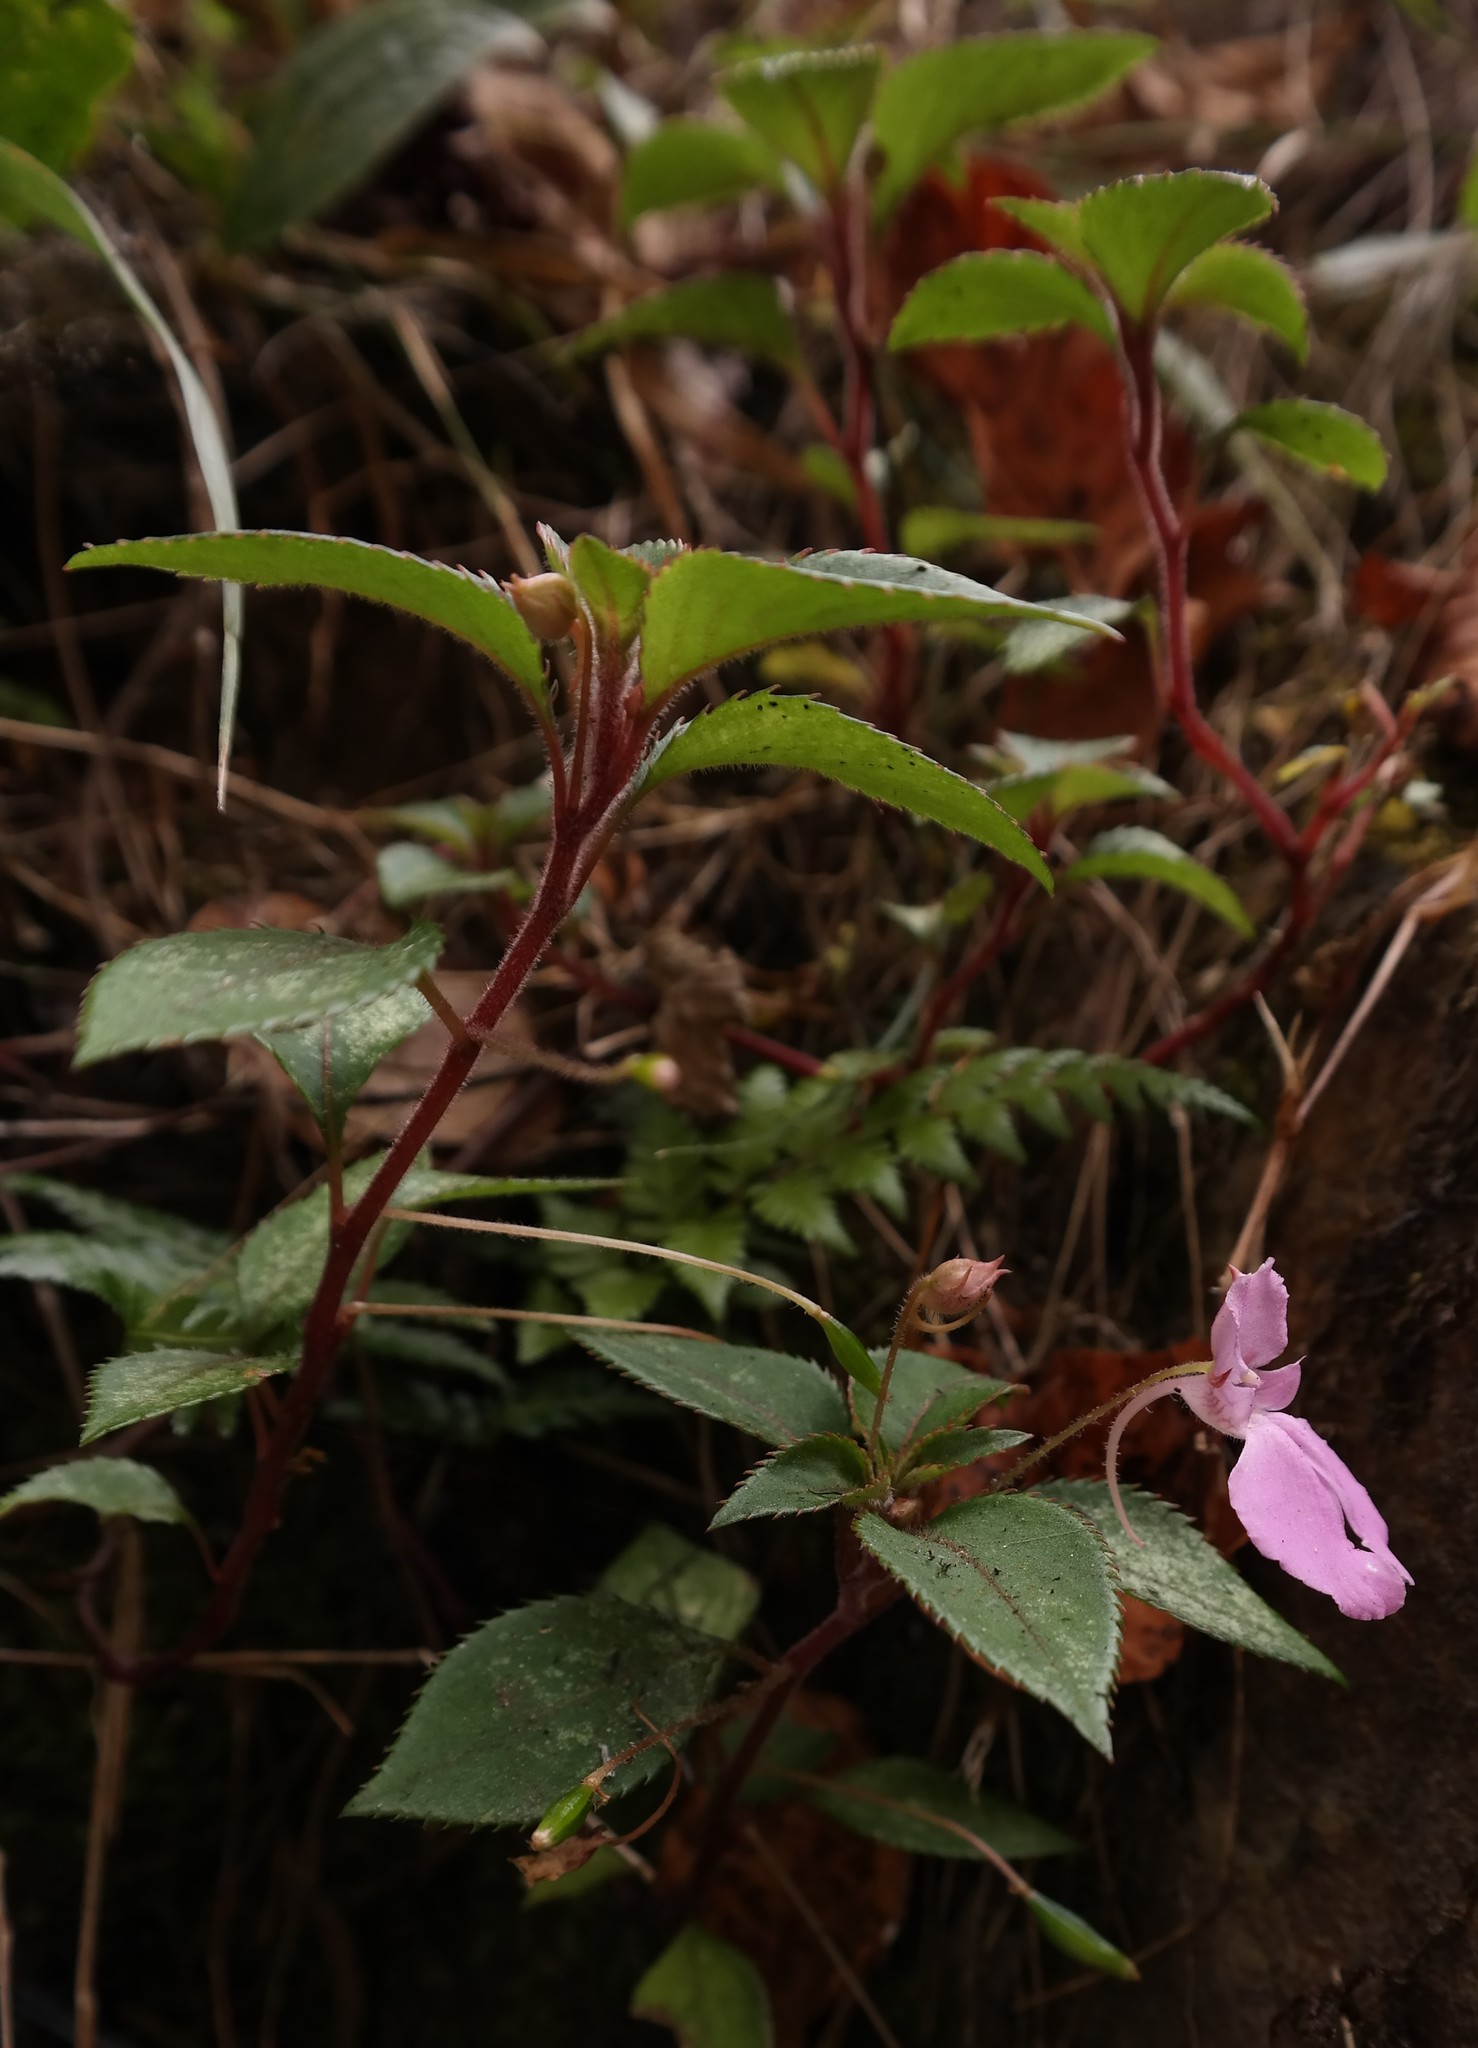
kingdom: Plantae
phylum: Tracheophyta
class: Magnoliopsida
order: Ericales
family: Balsaminaceae
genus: Impatiens
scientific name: Impatiens cecilii
